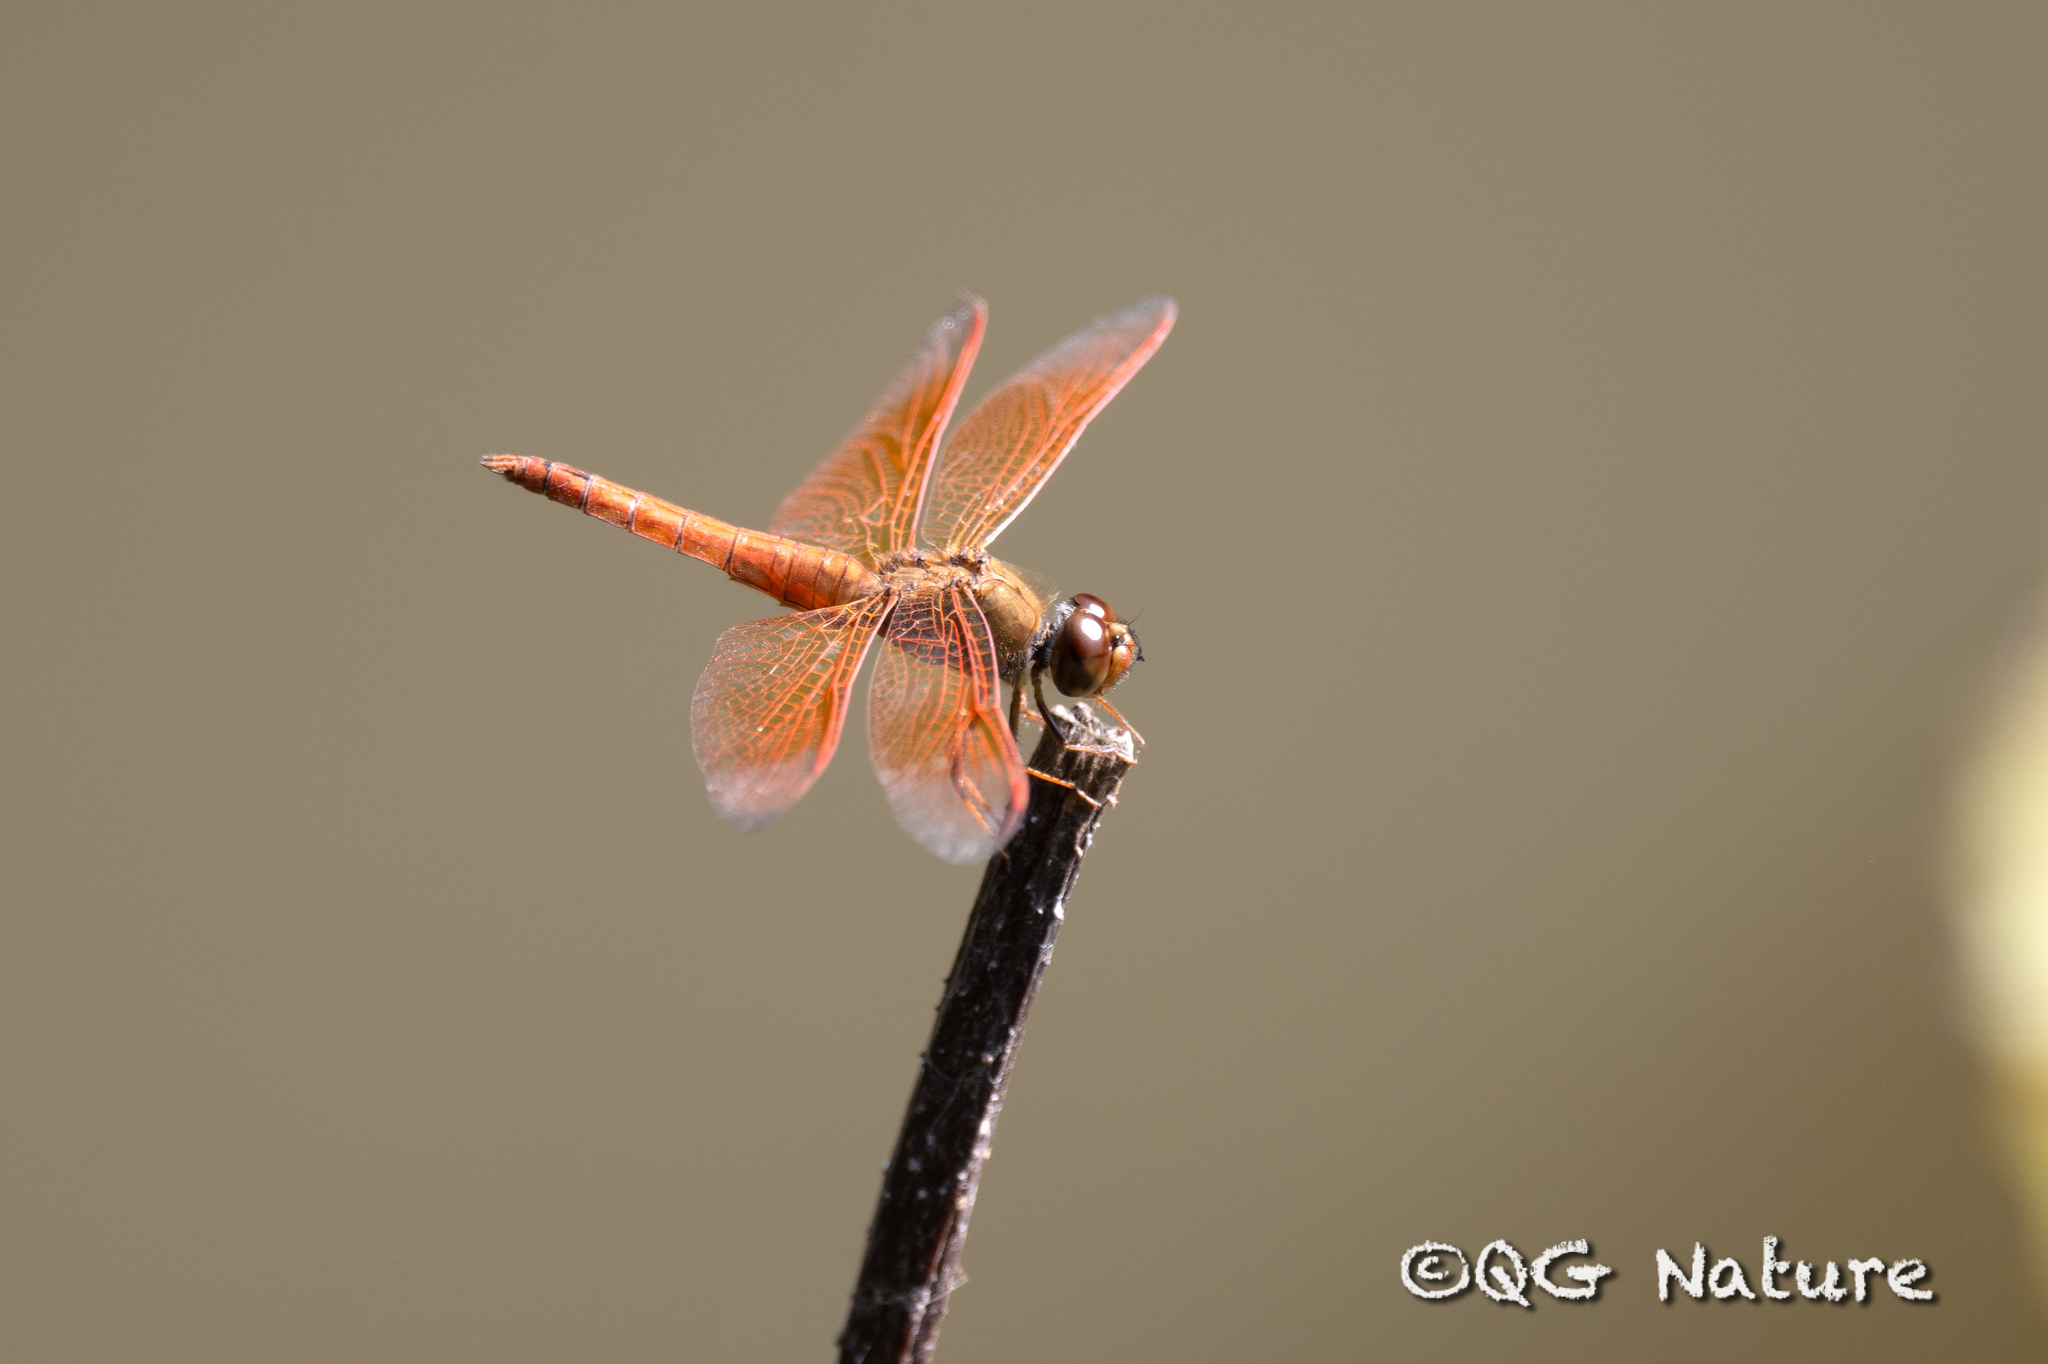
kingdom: Animalia
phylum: Arthropoda
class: Insecta
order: Odonata
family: Libellulidae
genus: Brachythemis
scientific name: Brachythemis contaminata
